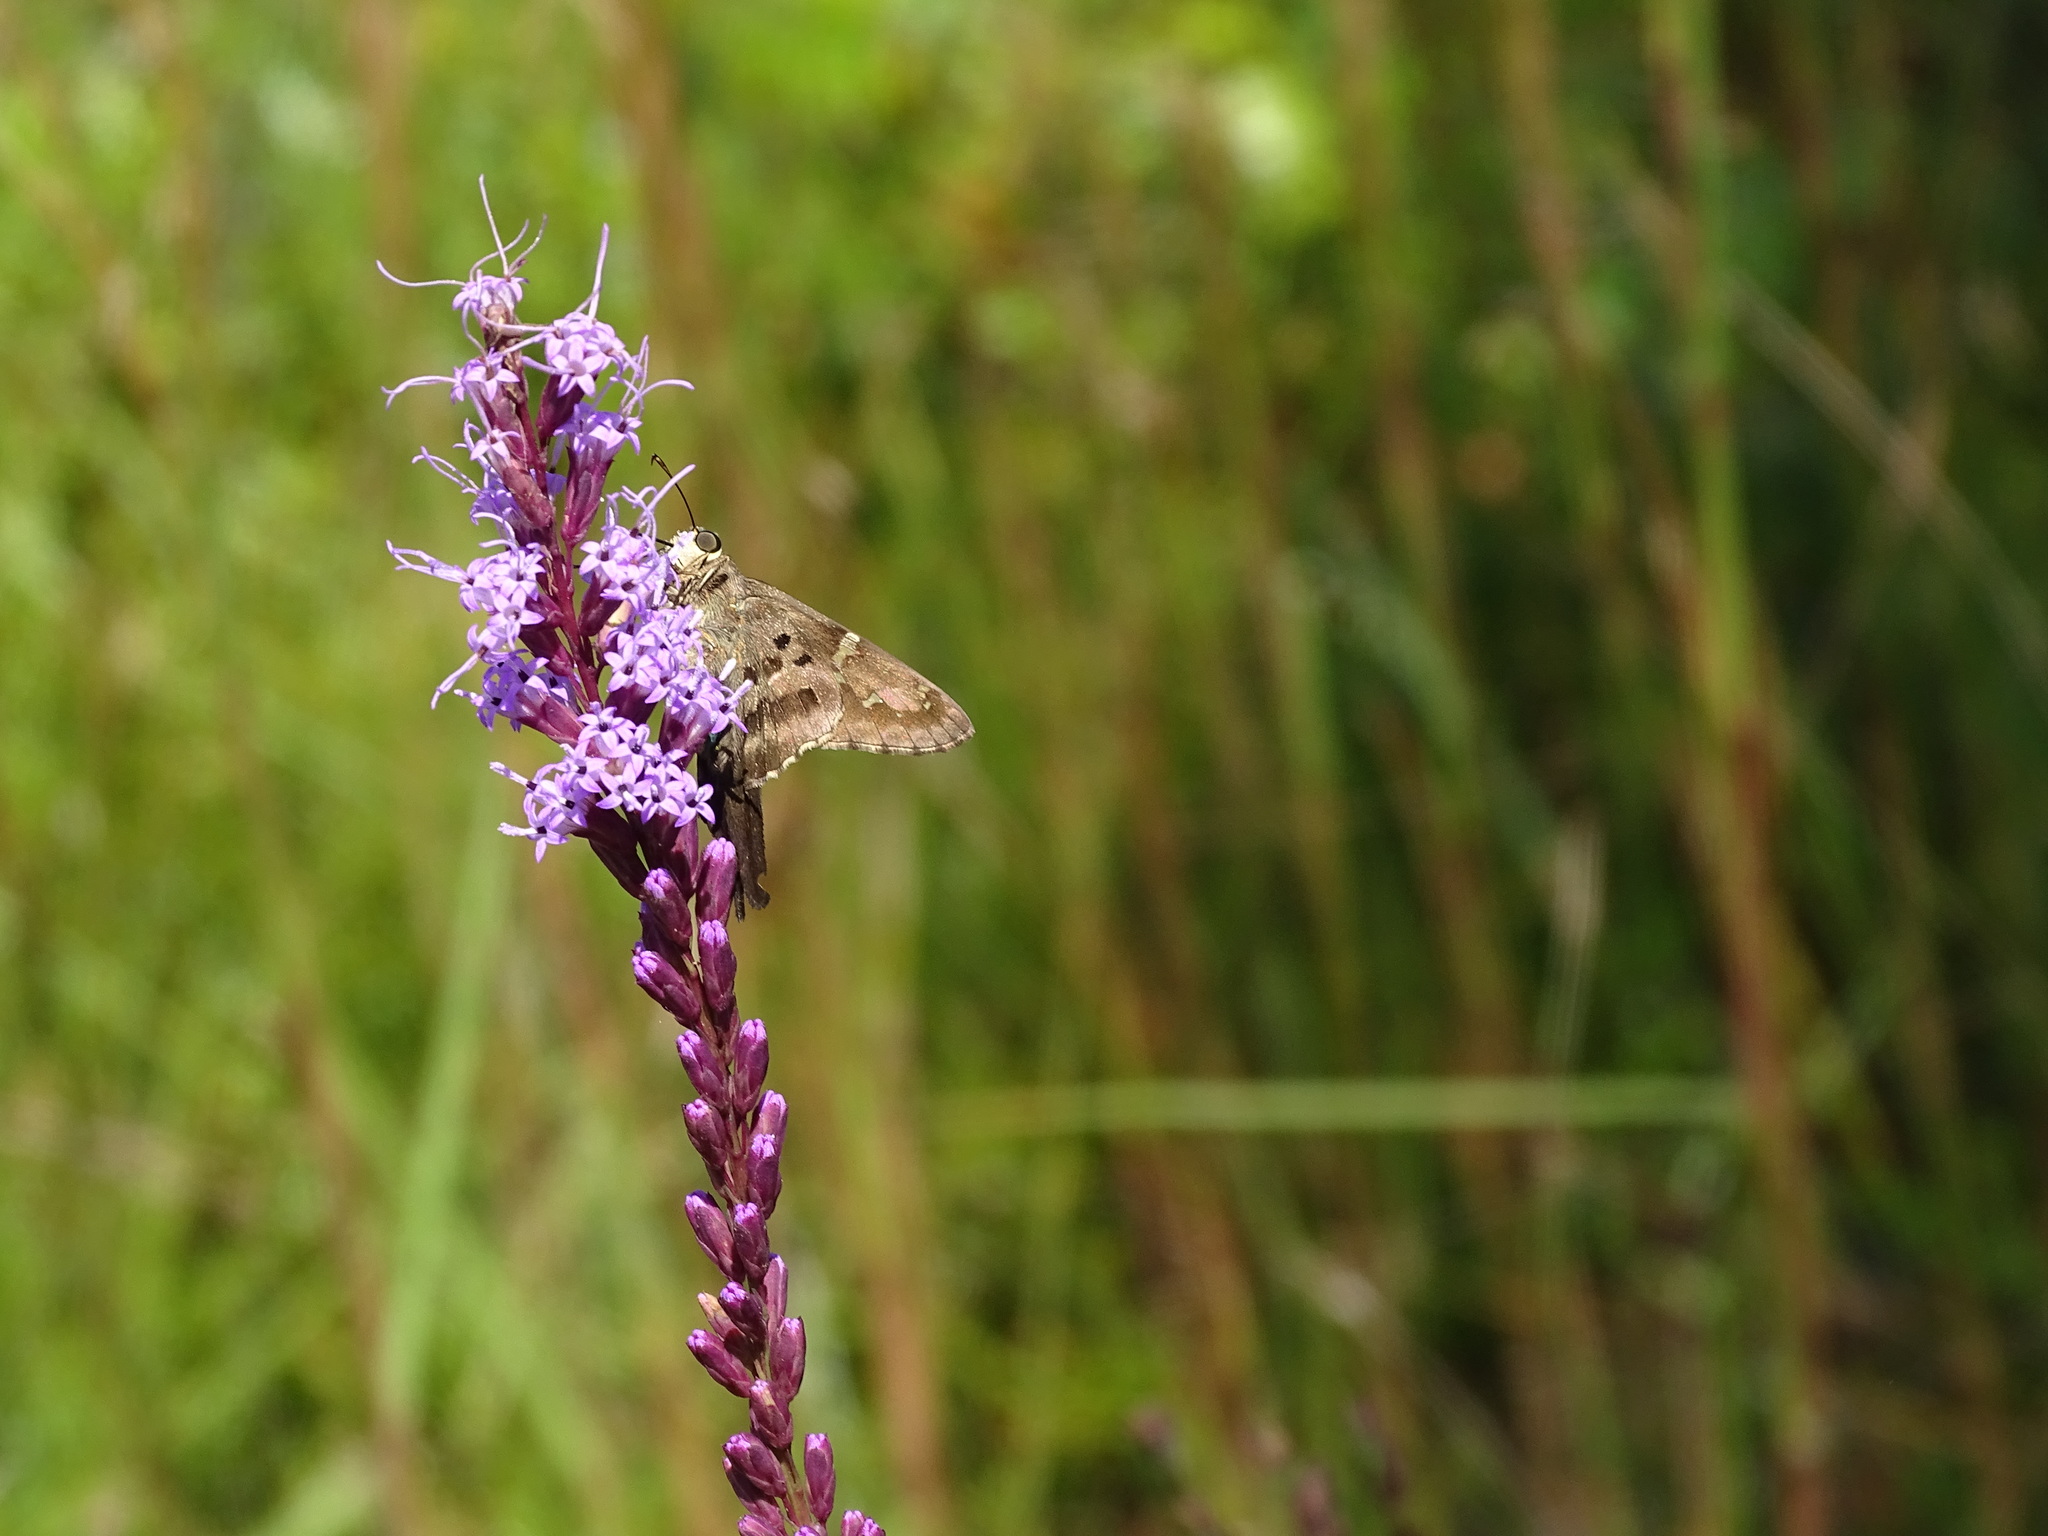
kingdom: Animalia
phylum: Arthropoda
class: Insecta
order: Lepidoptera
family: Hesperiidae
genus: Urbanus
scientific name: Urbanus proteus
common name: Long-tailed skipper
